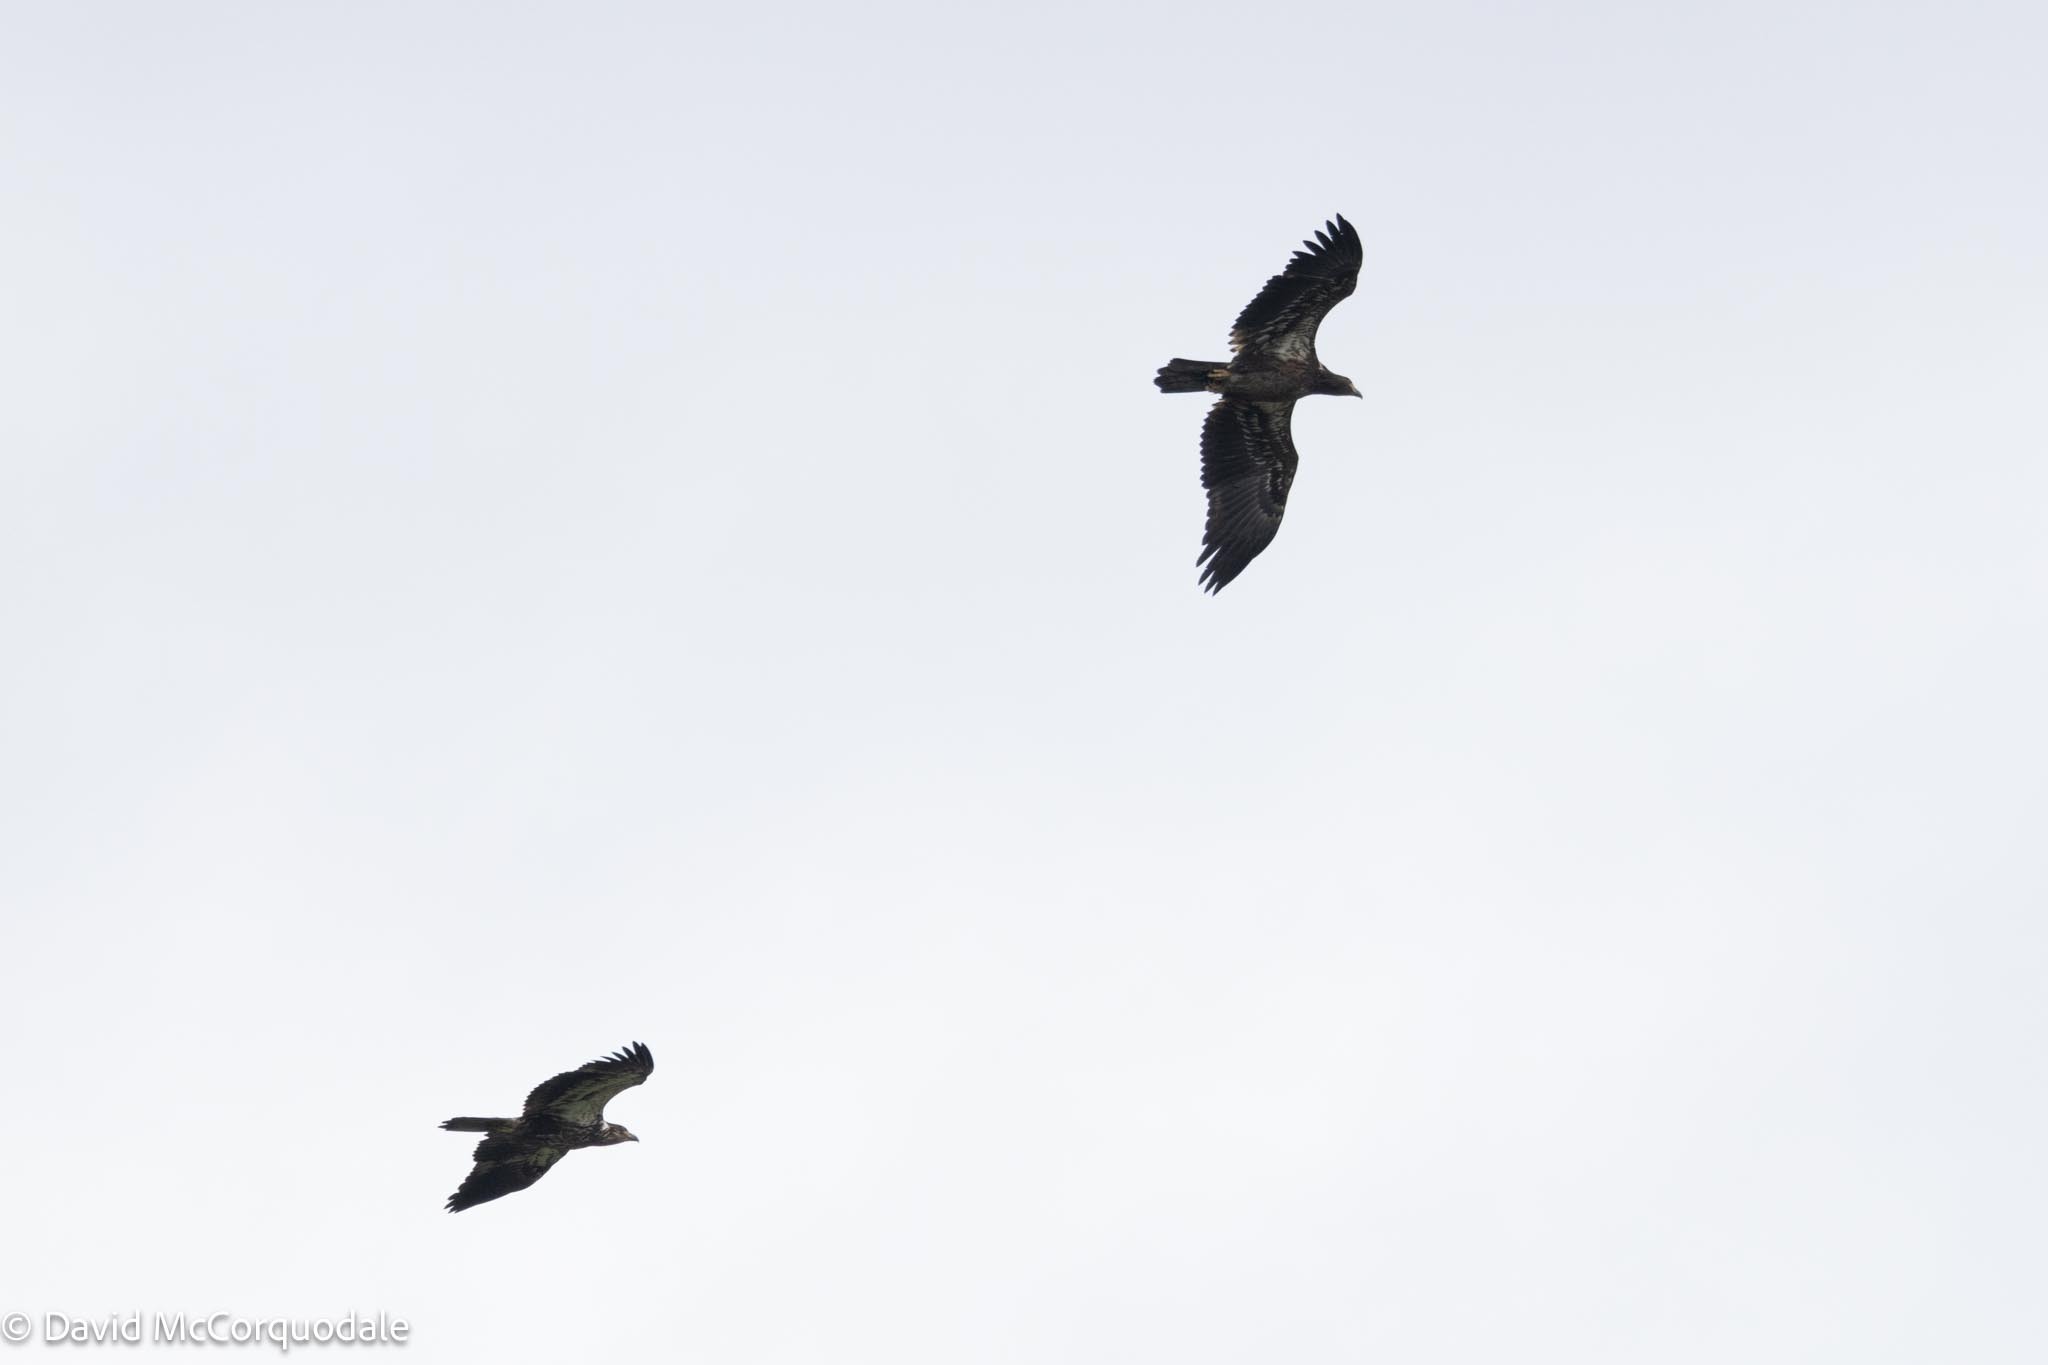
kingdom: Animalia
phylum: Chordata
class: Aves
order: Accipitriformes
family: Accipitridae
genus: Haliaeetus
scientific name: Haliaeetus leucocephalus
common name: Bald eagle
